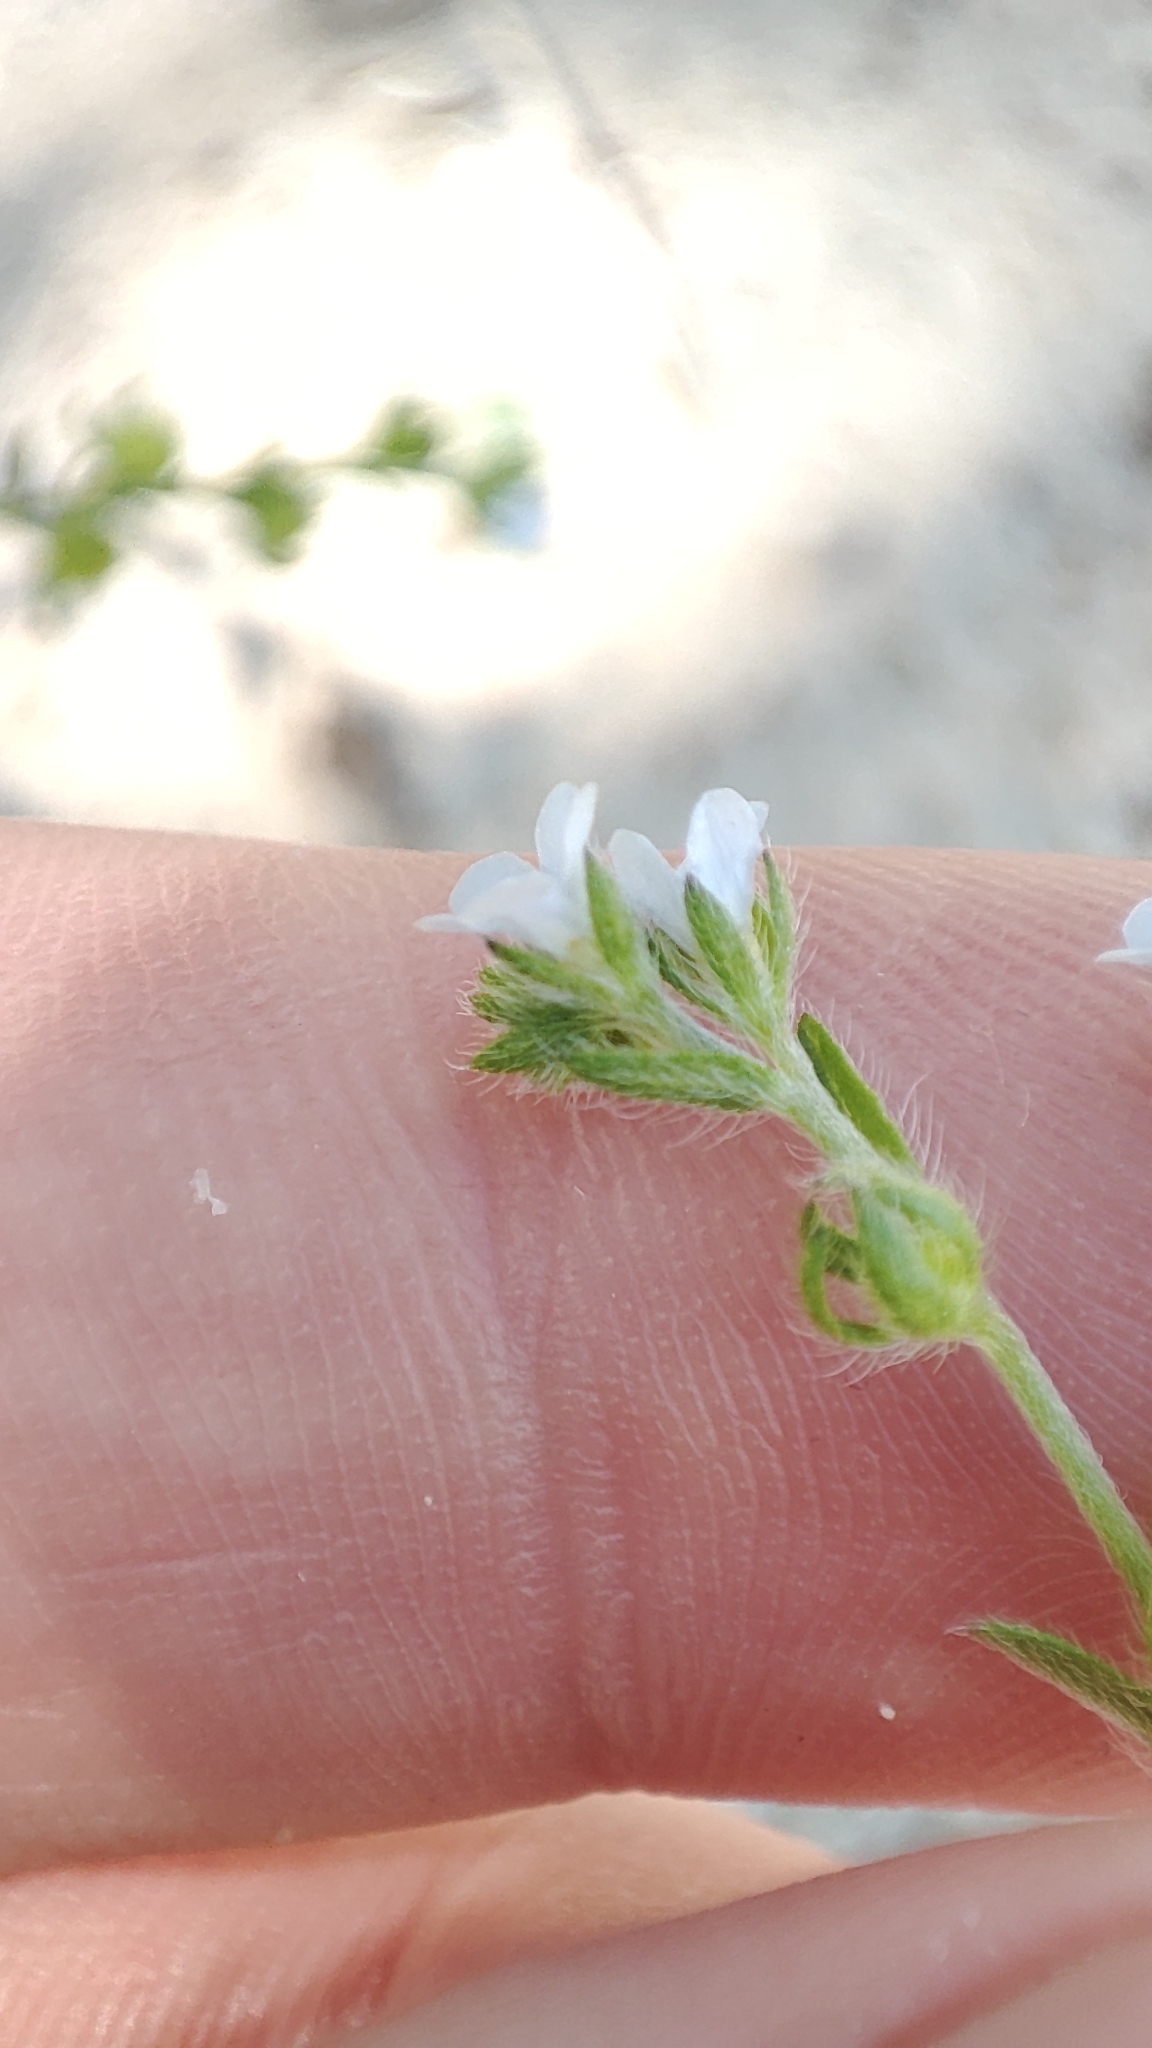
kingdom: Plantae
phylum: Tracheophyta
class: Magnoliopsida
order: Boraginales
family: Boraginaceae
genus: Lappula
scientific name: Lappula squarrosa
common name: European stickseed
